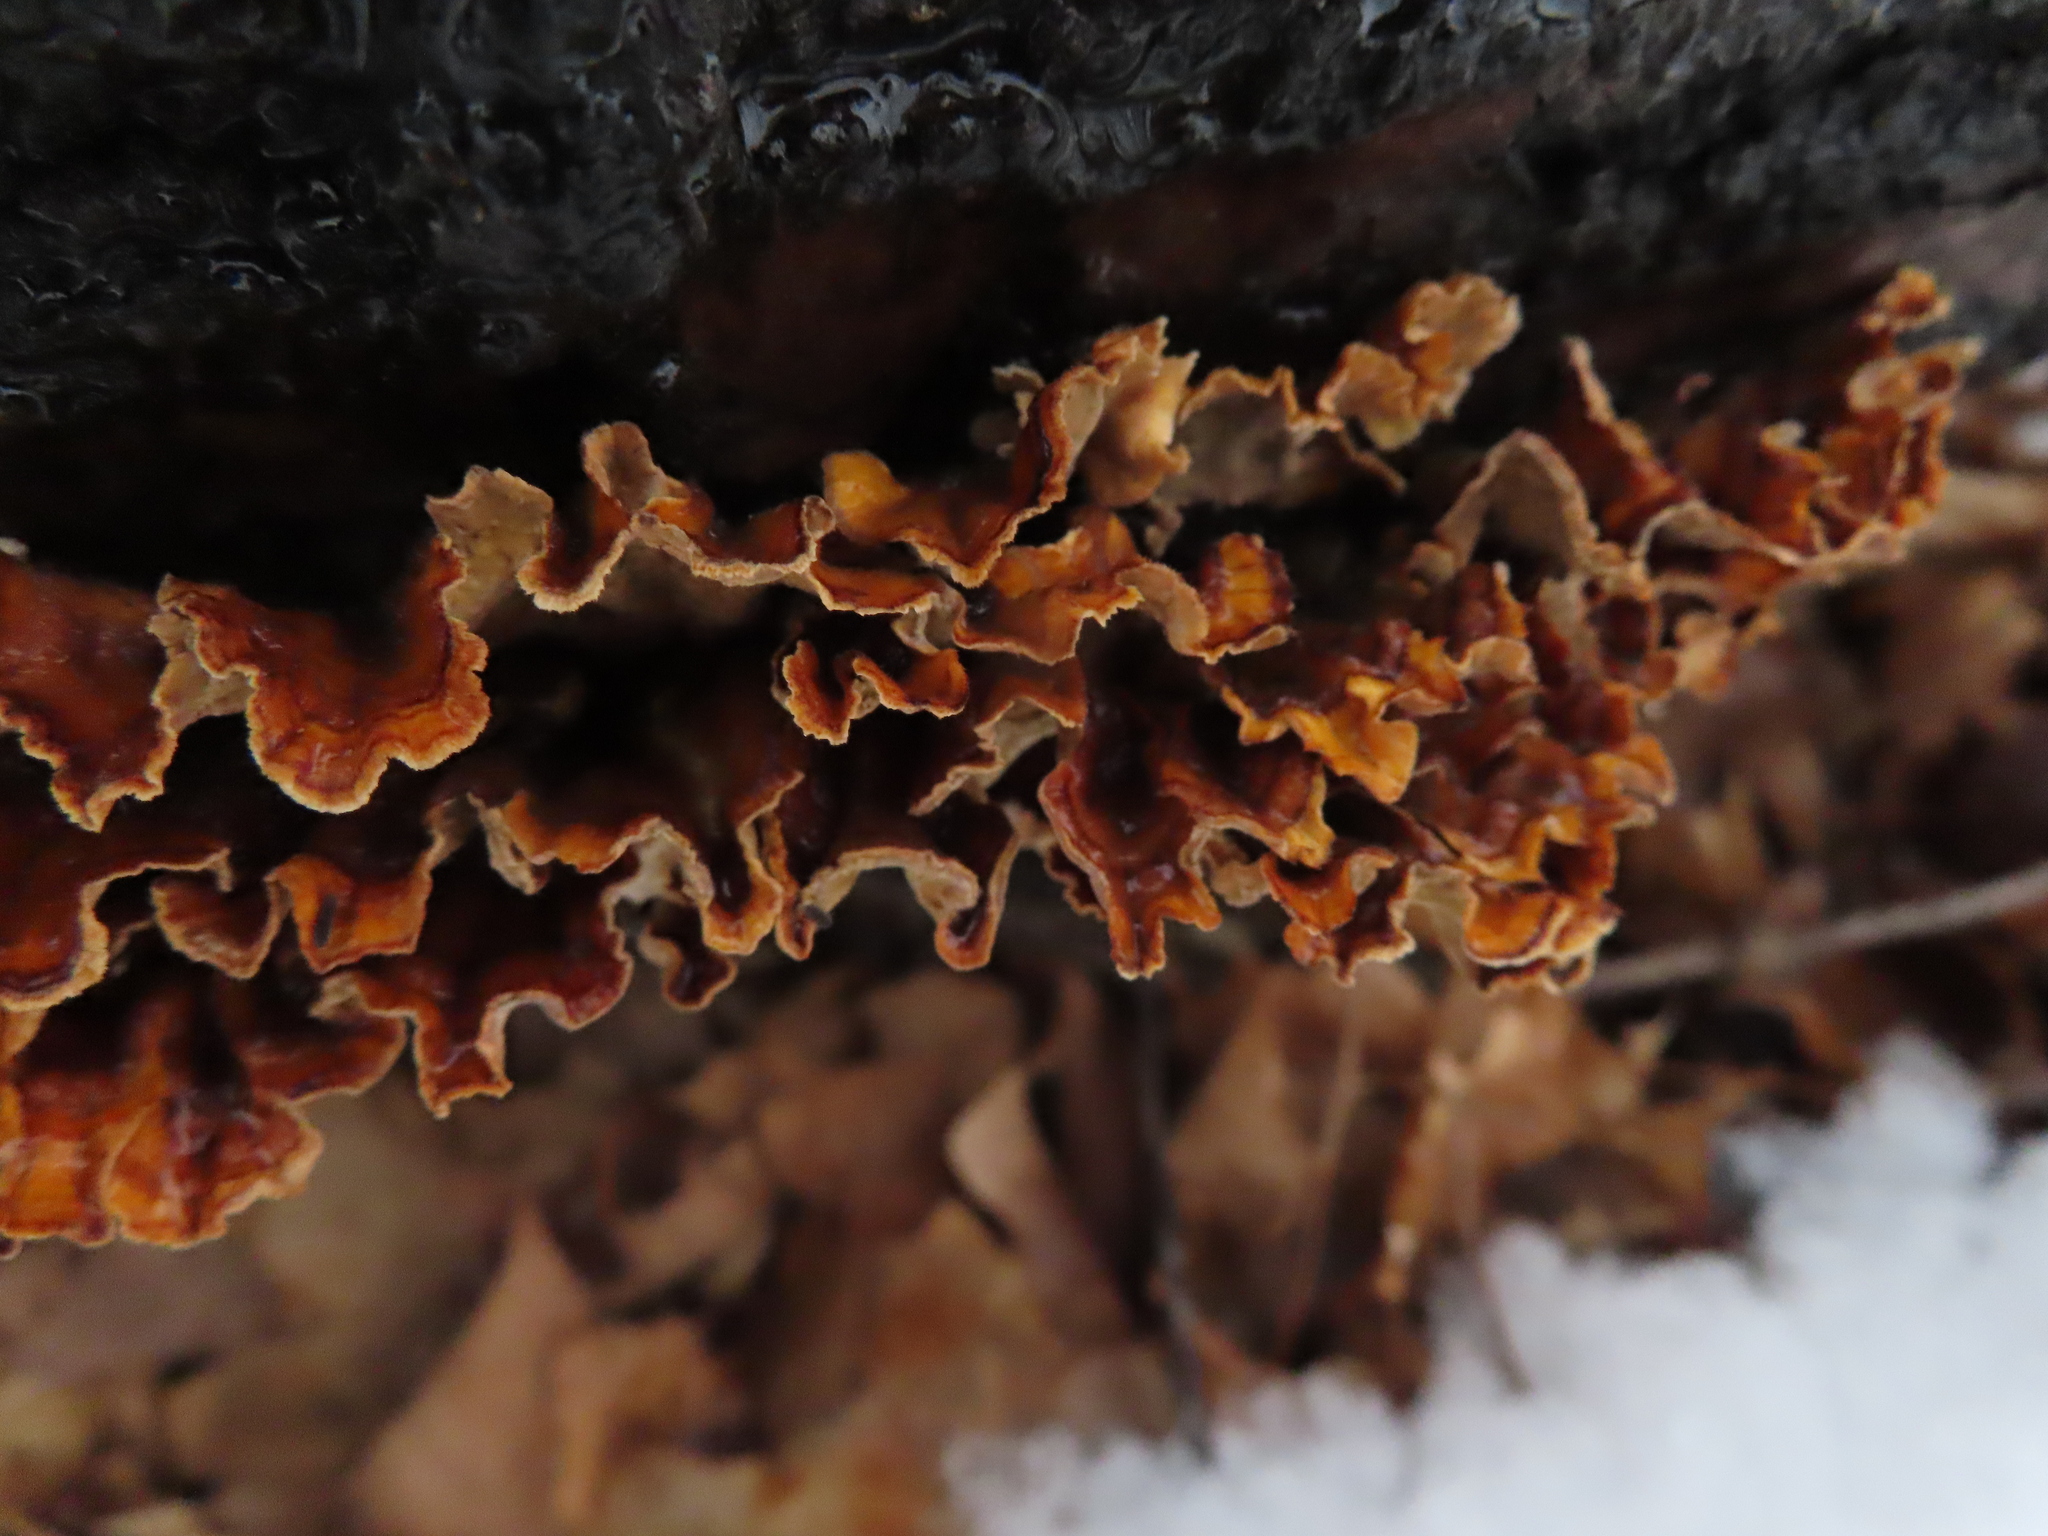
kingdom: Fungi
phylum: Basidiomycota
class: Agaricomycetes
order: Russulales
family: Stereaceae
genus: Stereum
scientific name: Stereum complicatum
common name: Crowded parchment
